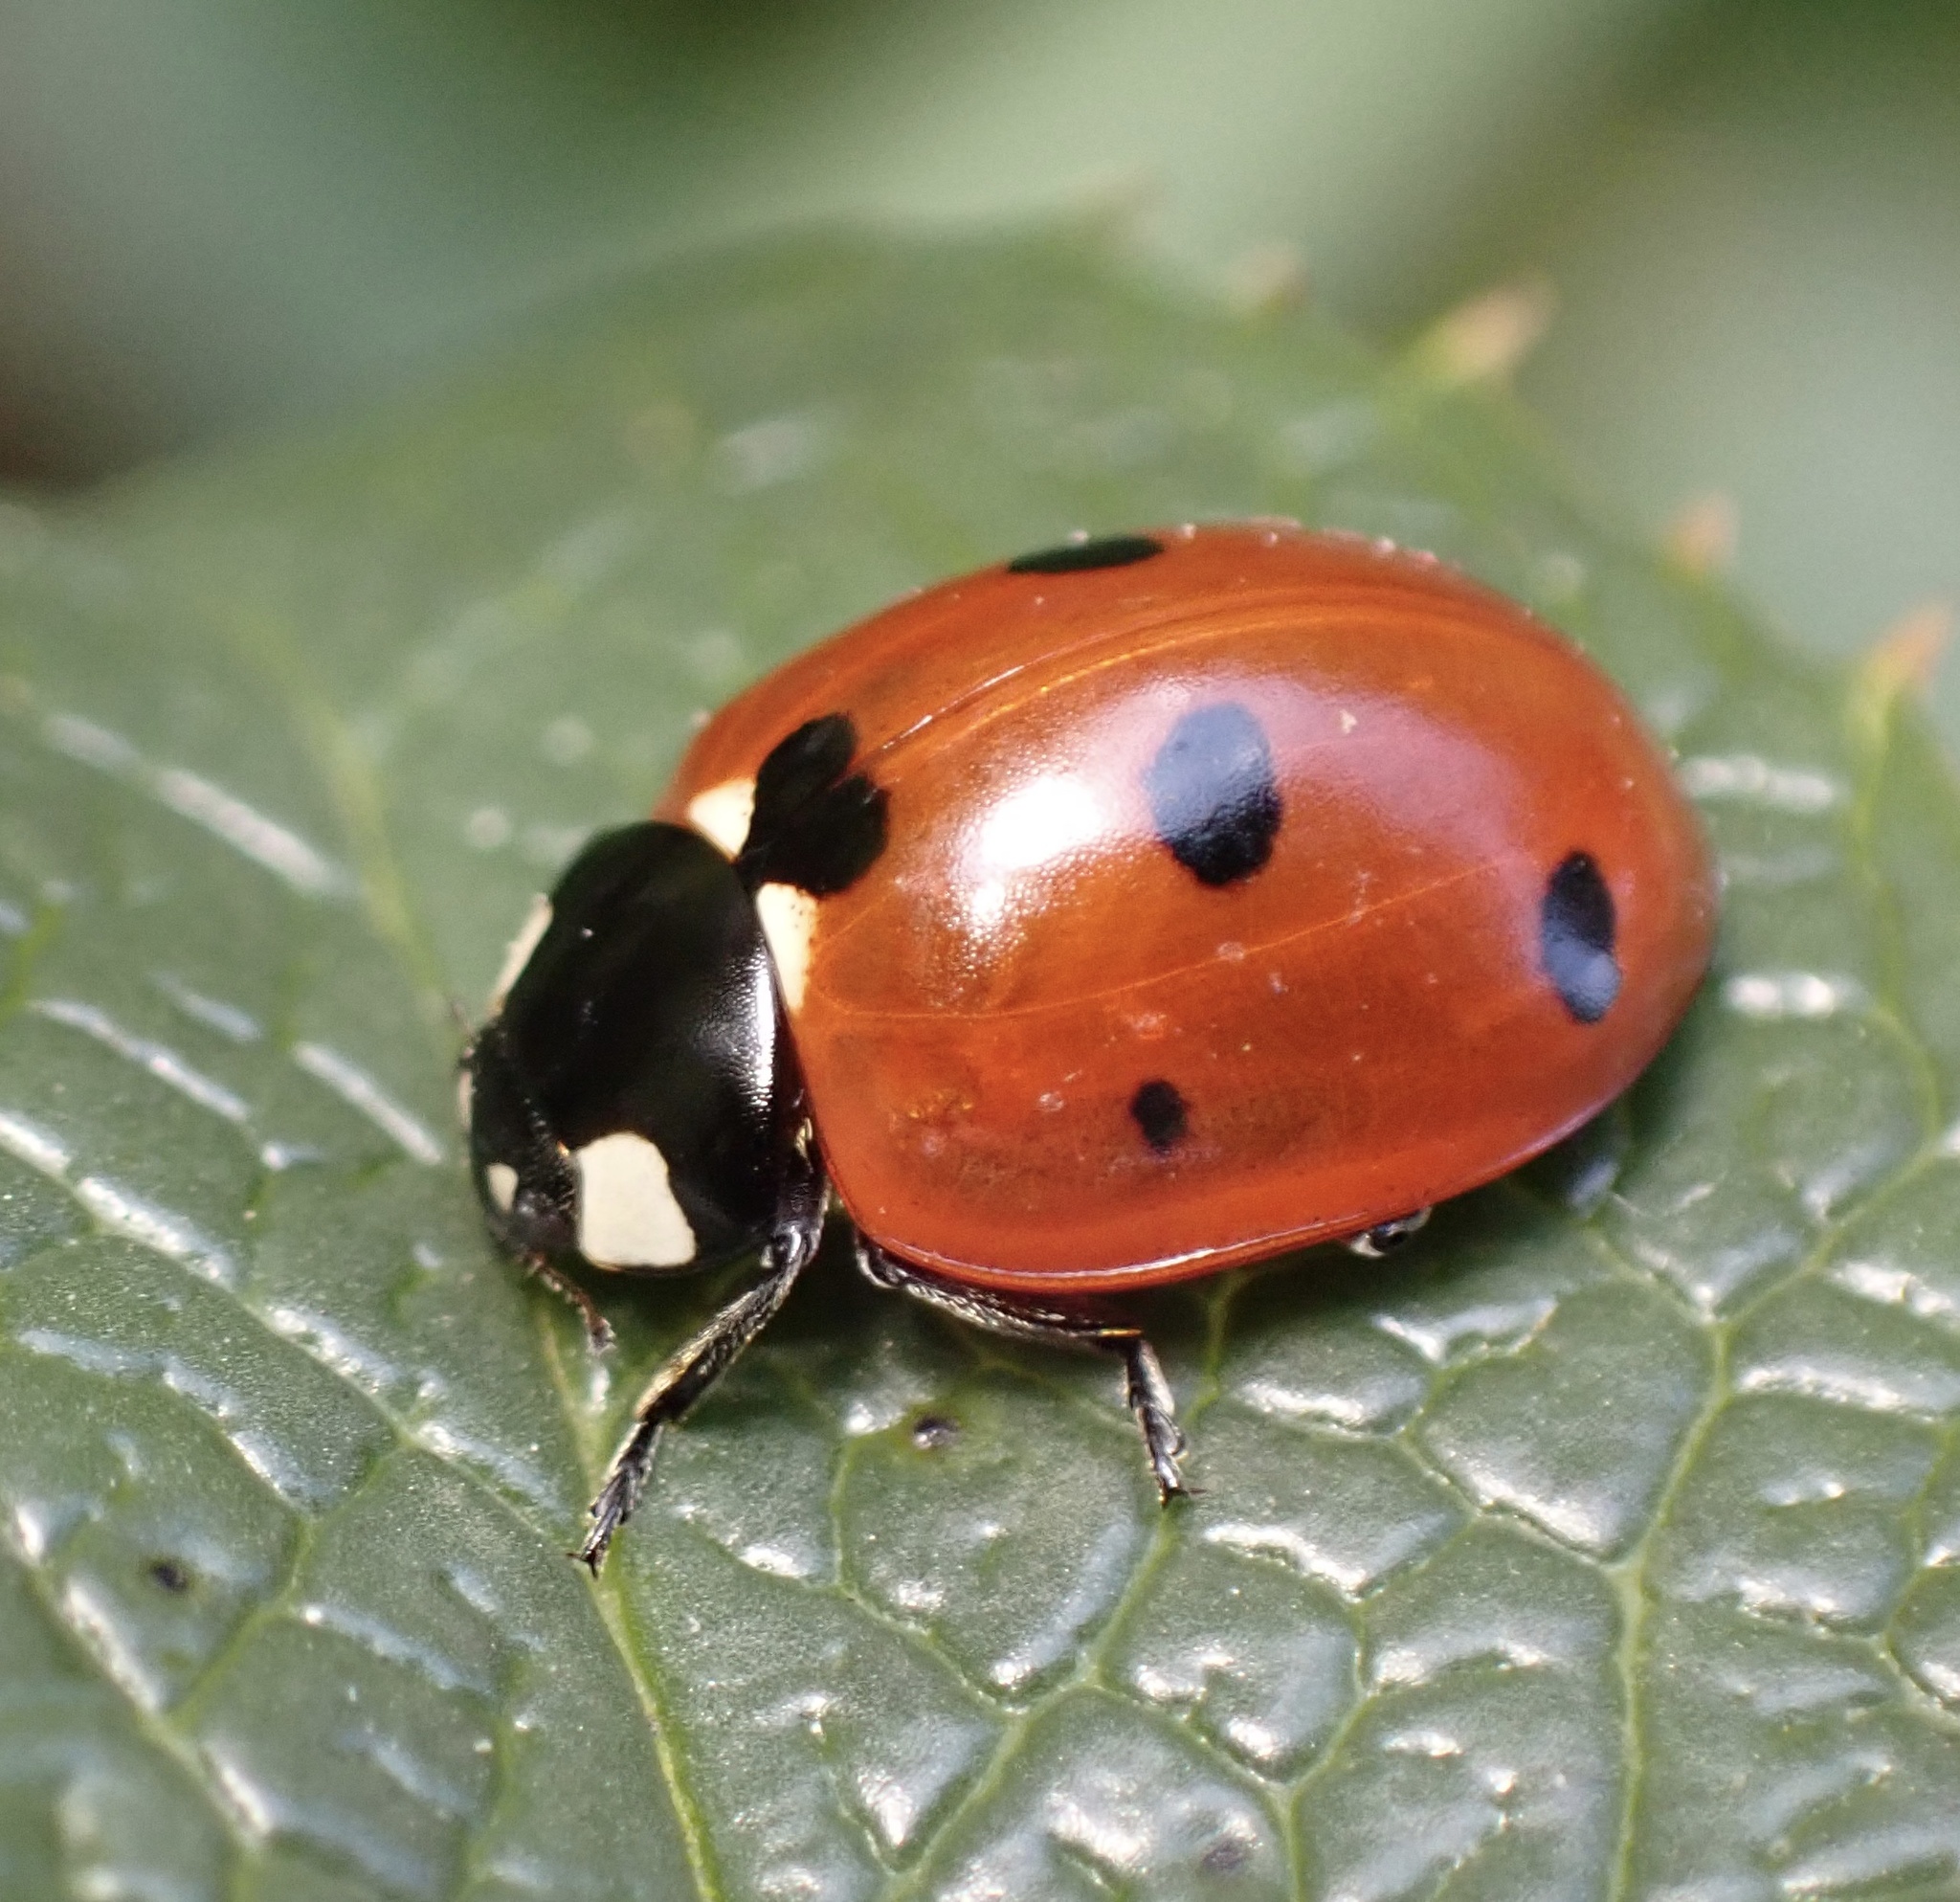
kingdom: Animalia
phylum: Arthropoda
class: Insecta
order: Coleoptera
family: Coccinellidae
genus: Coccinella
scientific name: Coccinella septempunctata
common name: Sevenspotted lady beetle
